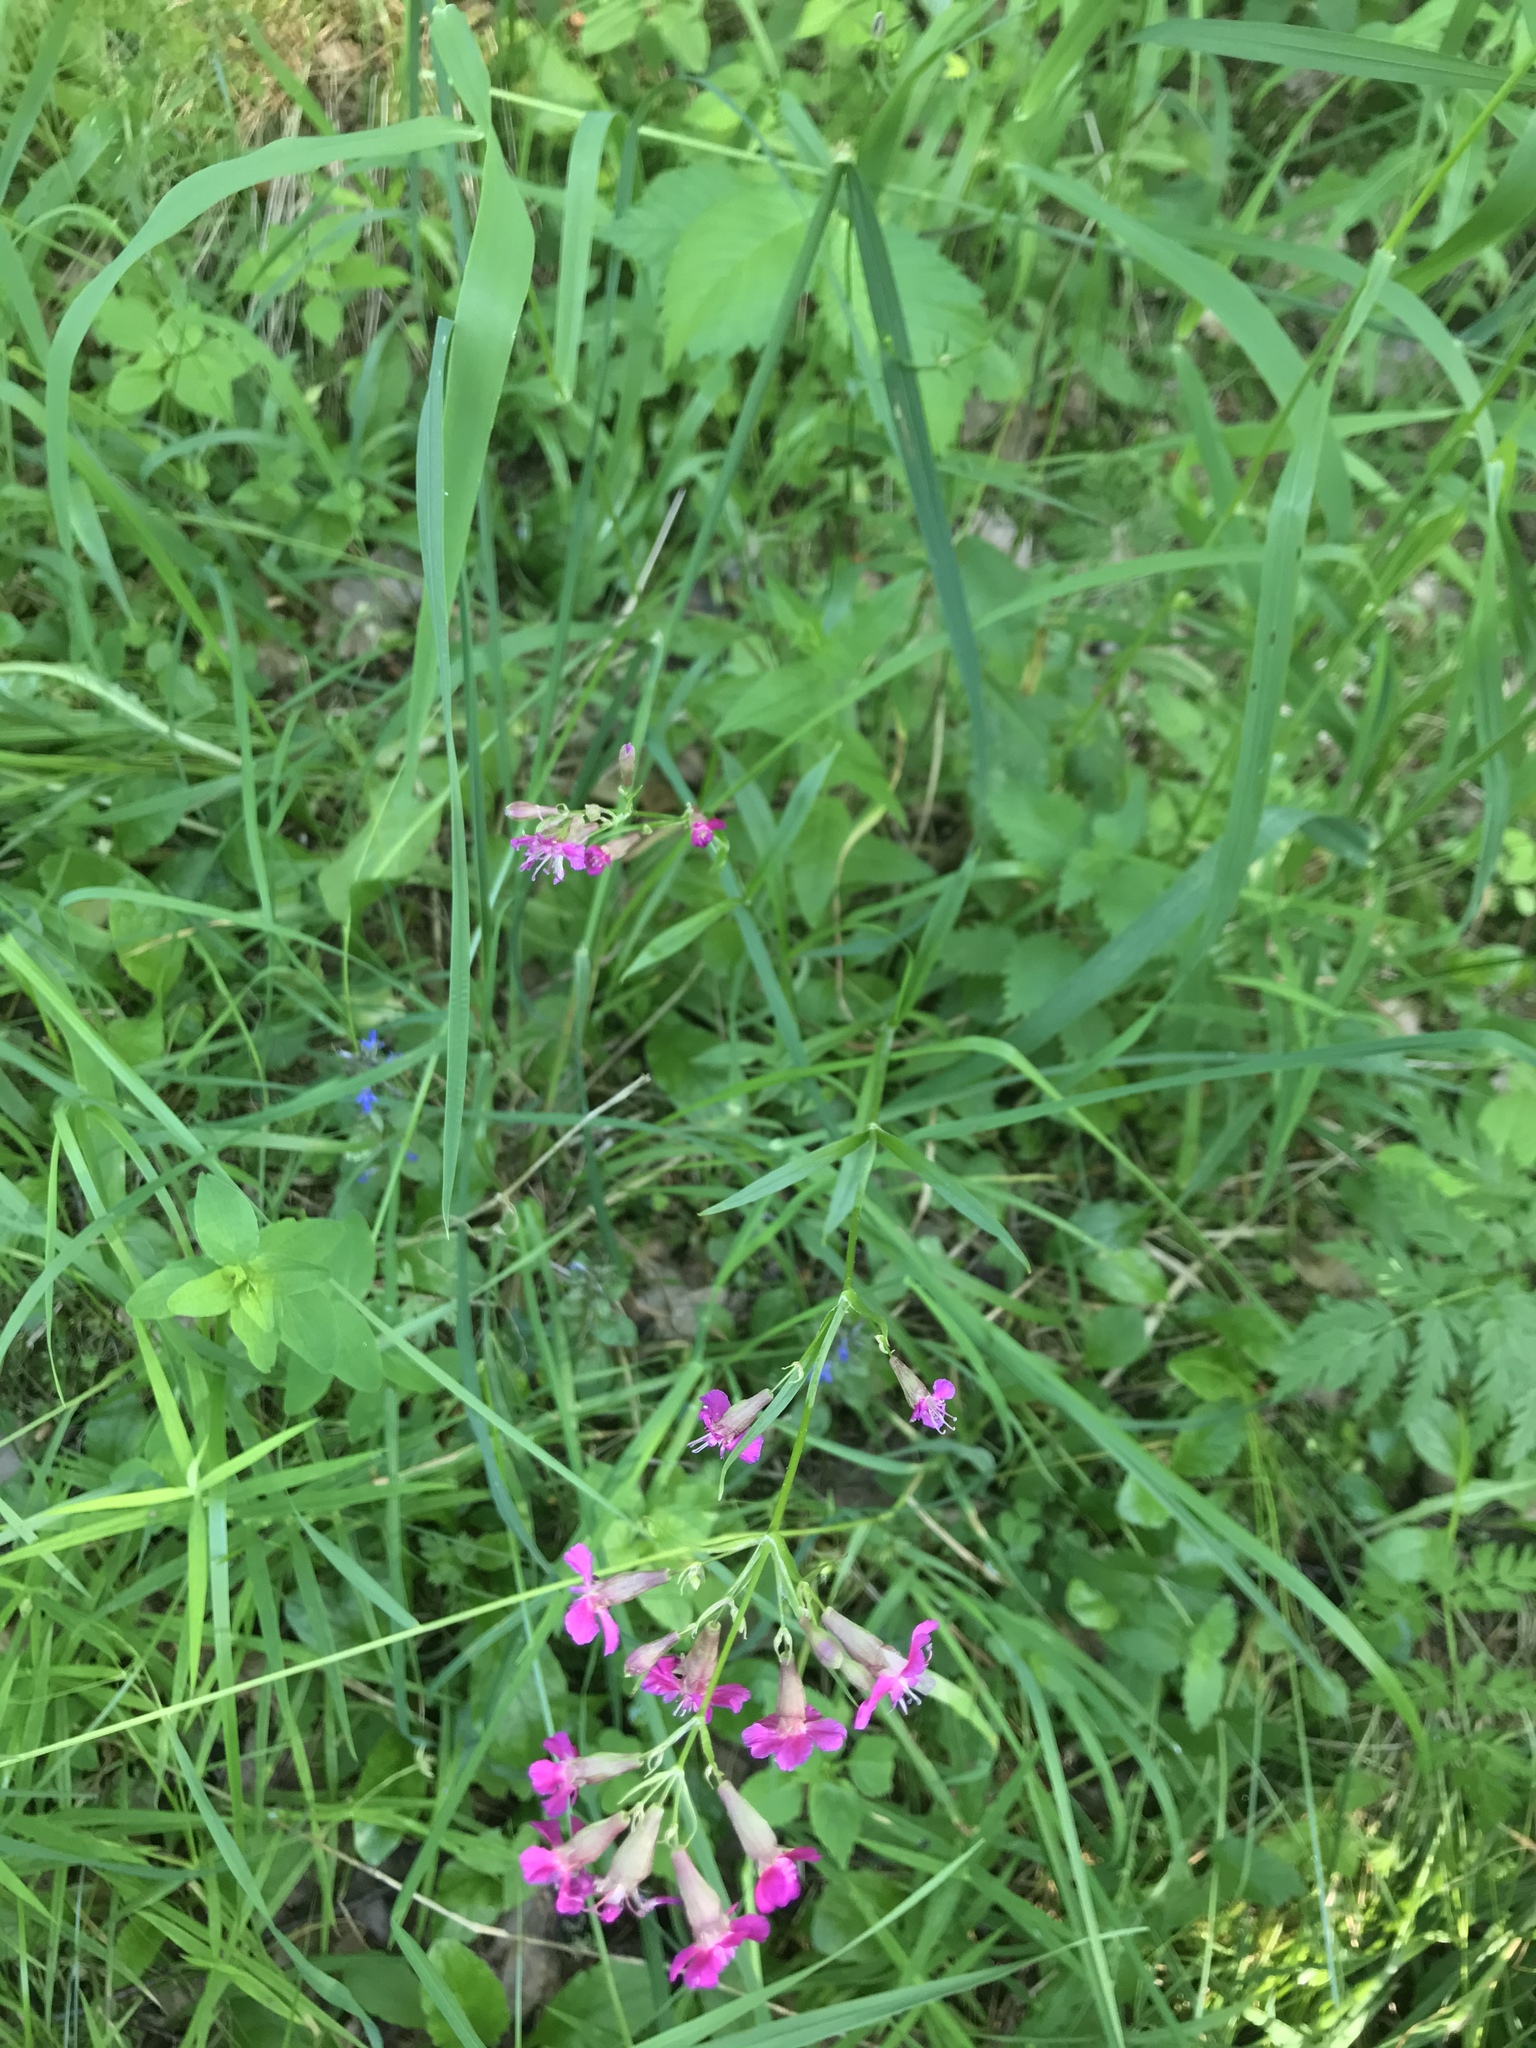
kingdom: Plantae
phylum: Tracheophyta
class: Magnoliopsida
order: Caryophyllales
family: Caryophyllaceae
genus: Viscaria
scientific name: Viscaria vulgaris
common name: Clammy campion
